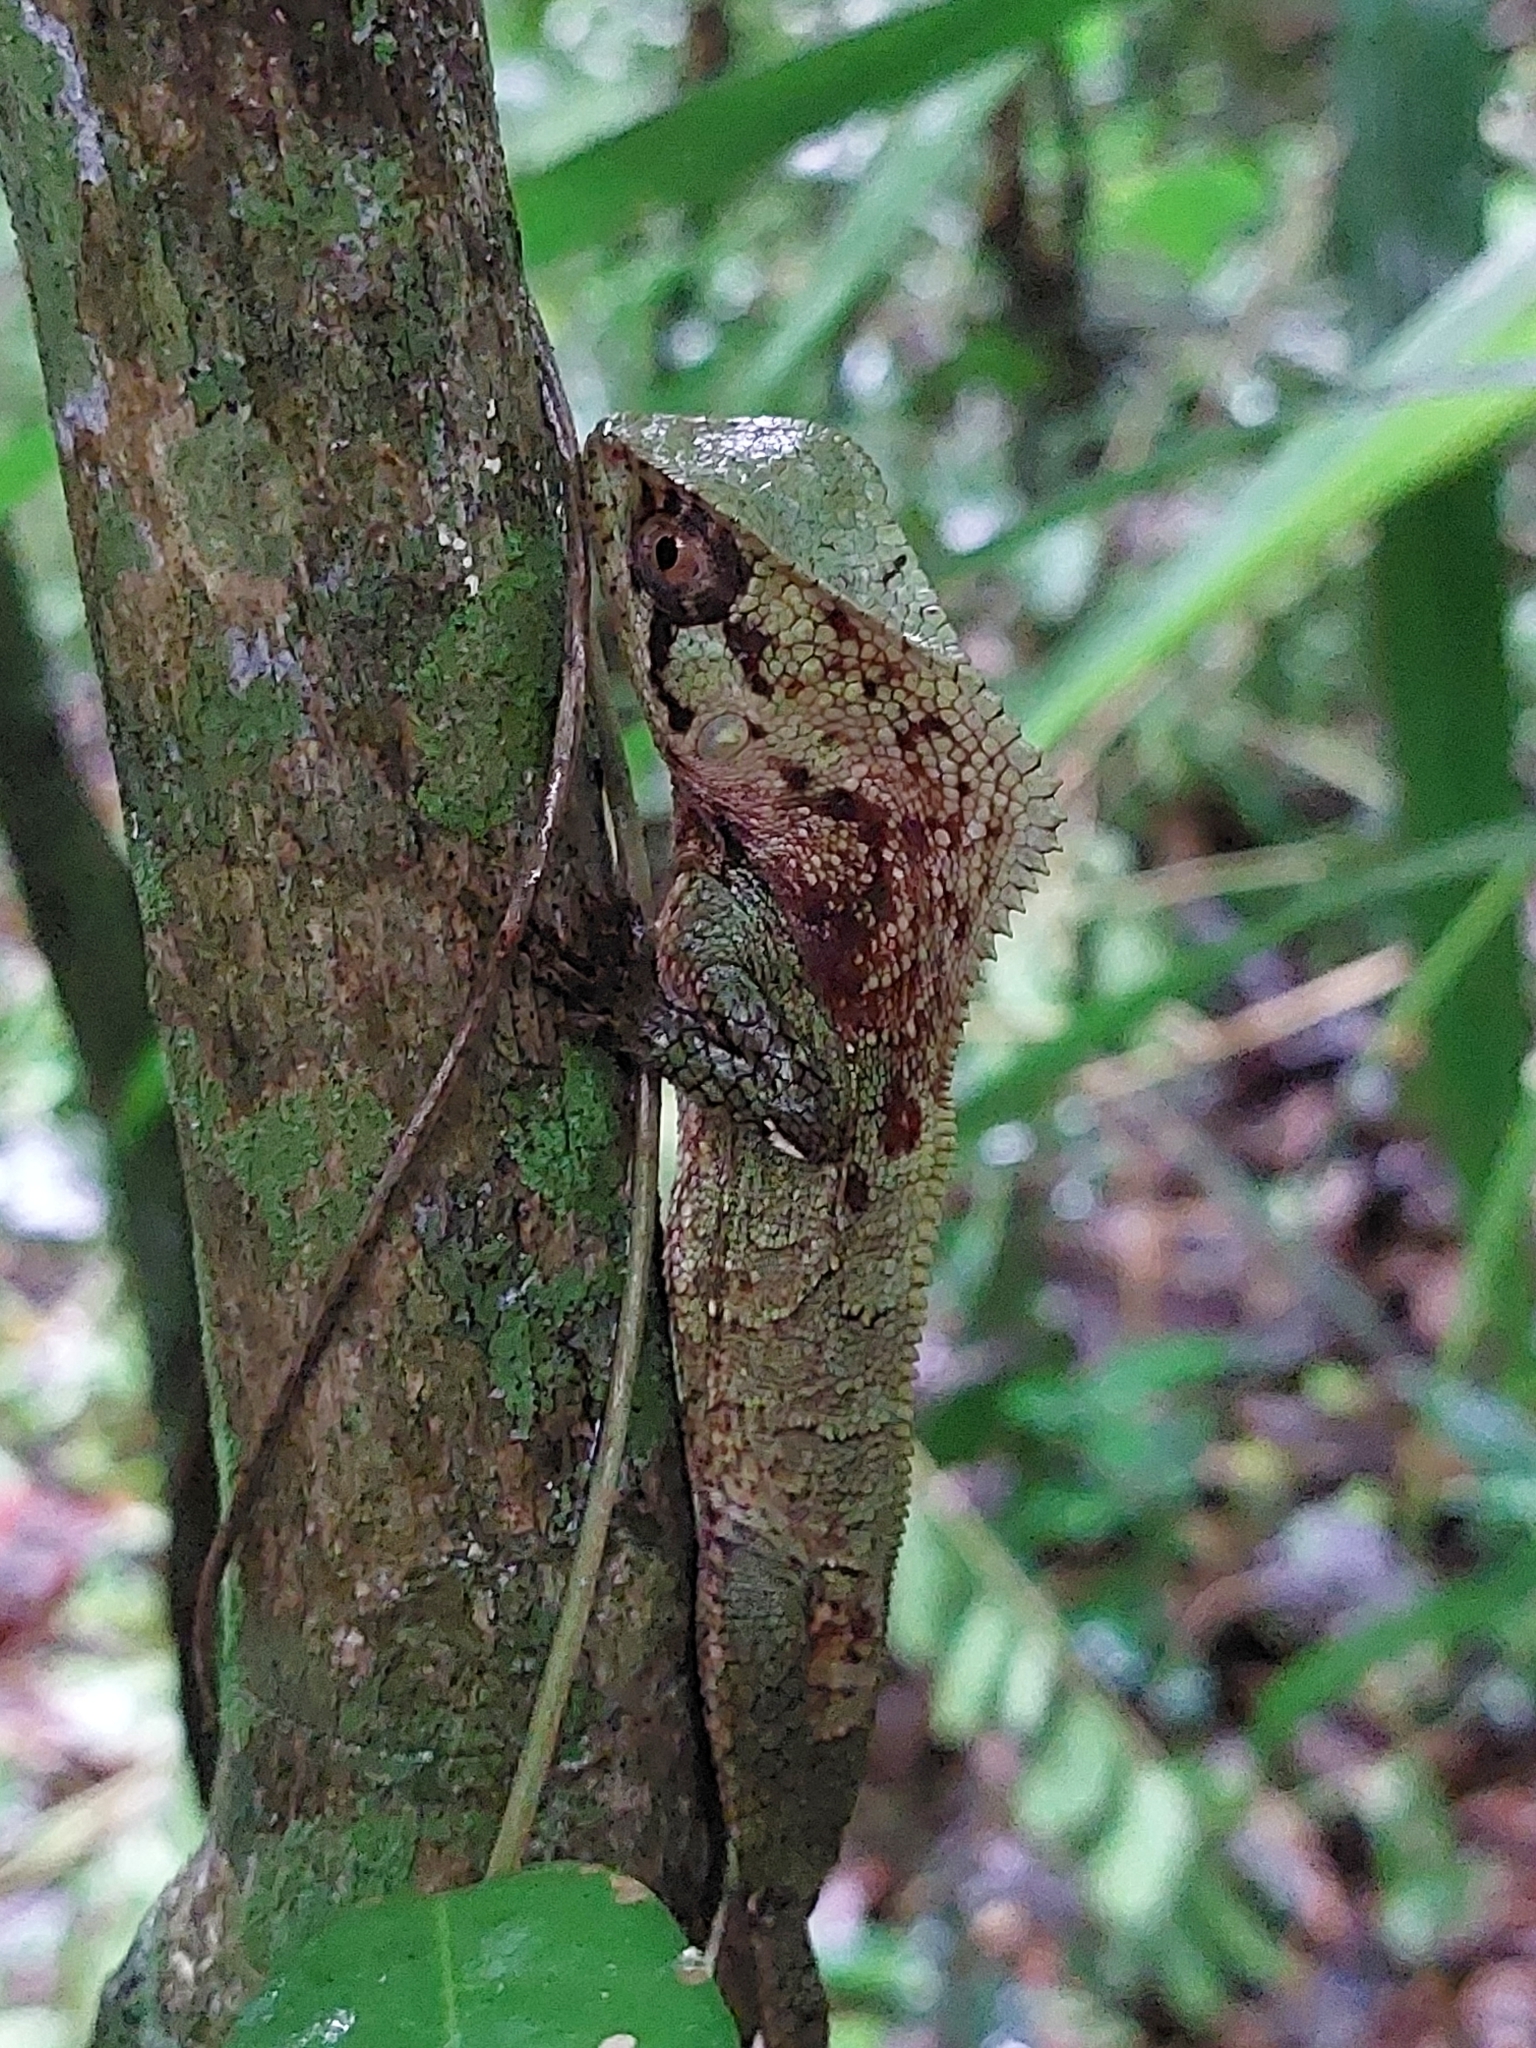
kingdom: Animalia
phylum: Chordata
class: Squamata
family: Corytophanidae
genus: Corytophanes
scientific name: Corytophanes cristatus
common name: Smooth helmeted iguana
